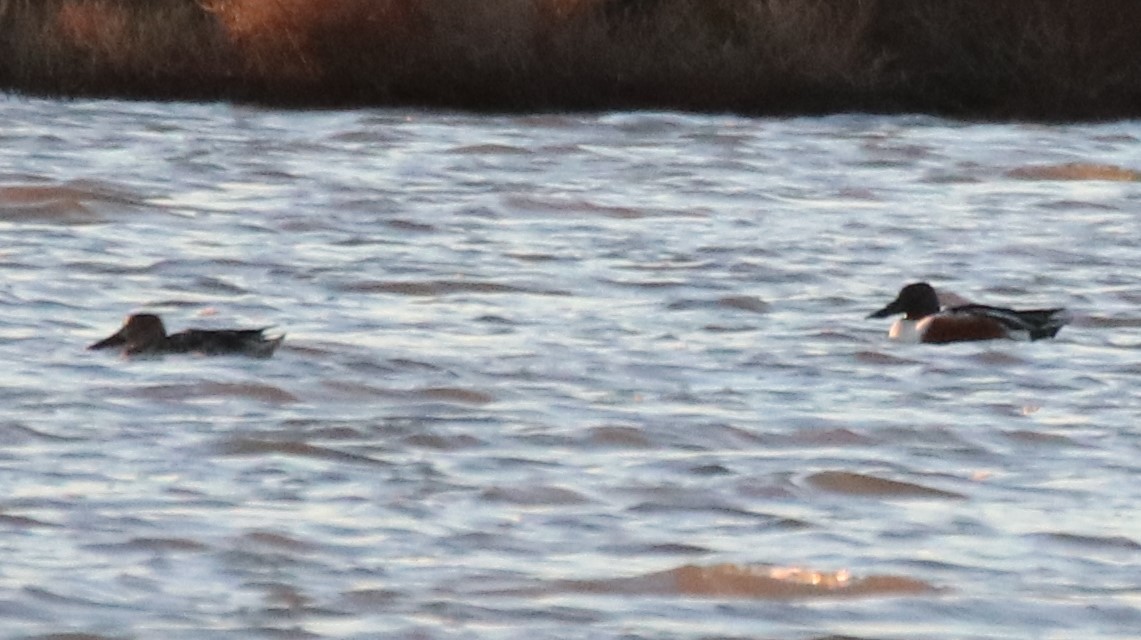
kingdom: Animalia
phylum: Chordata
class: Aves
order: Anseriformes
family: Anatidae
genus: Spatula
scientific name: Spatula clypeata
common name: Northern shoveler
